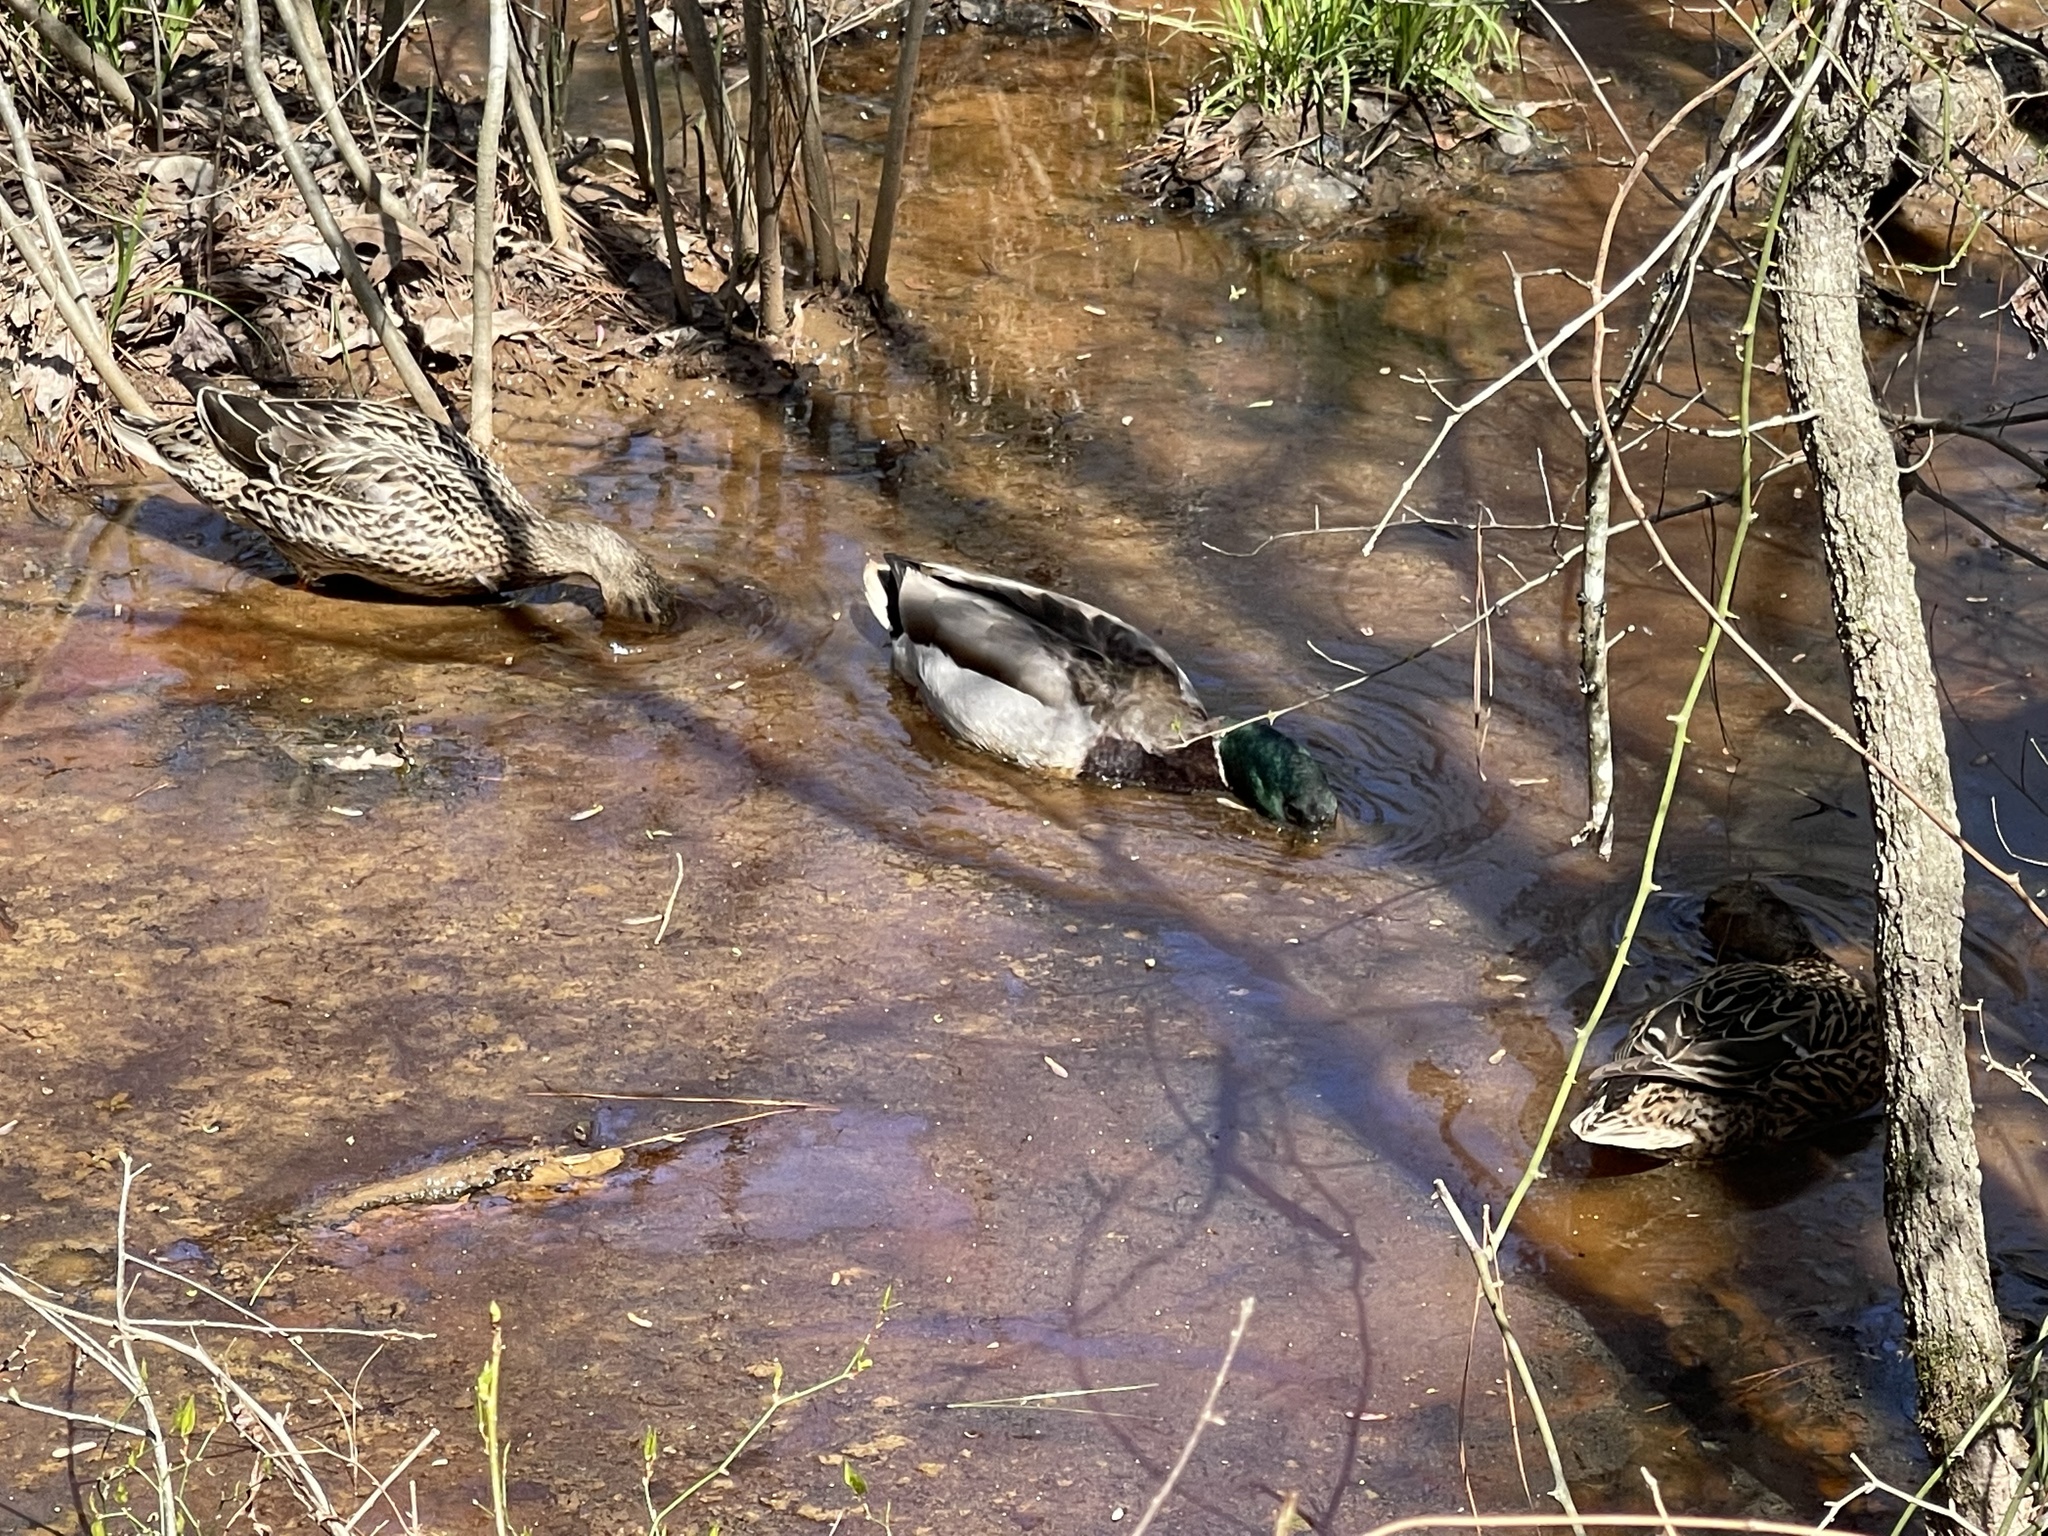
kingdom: Animalia
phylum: Chordata
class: Aves
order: Anseriformes
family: Anatidae
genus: Anas
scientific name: Anas platyrhynchos
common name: Mallard
